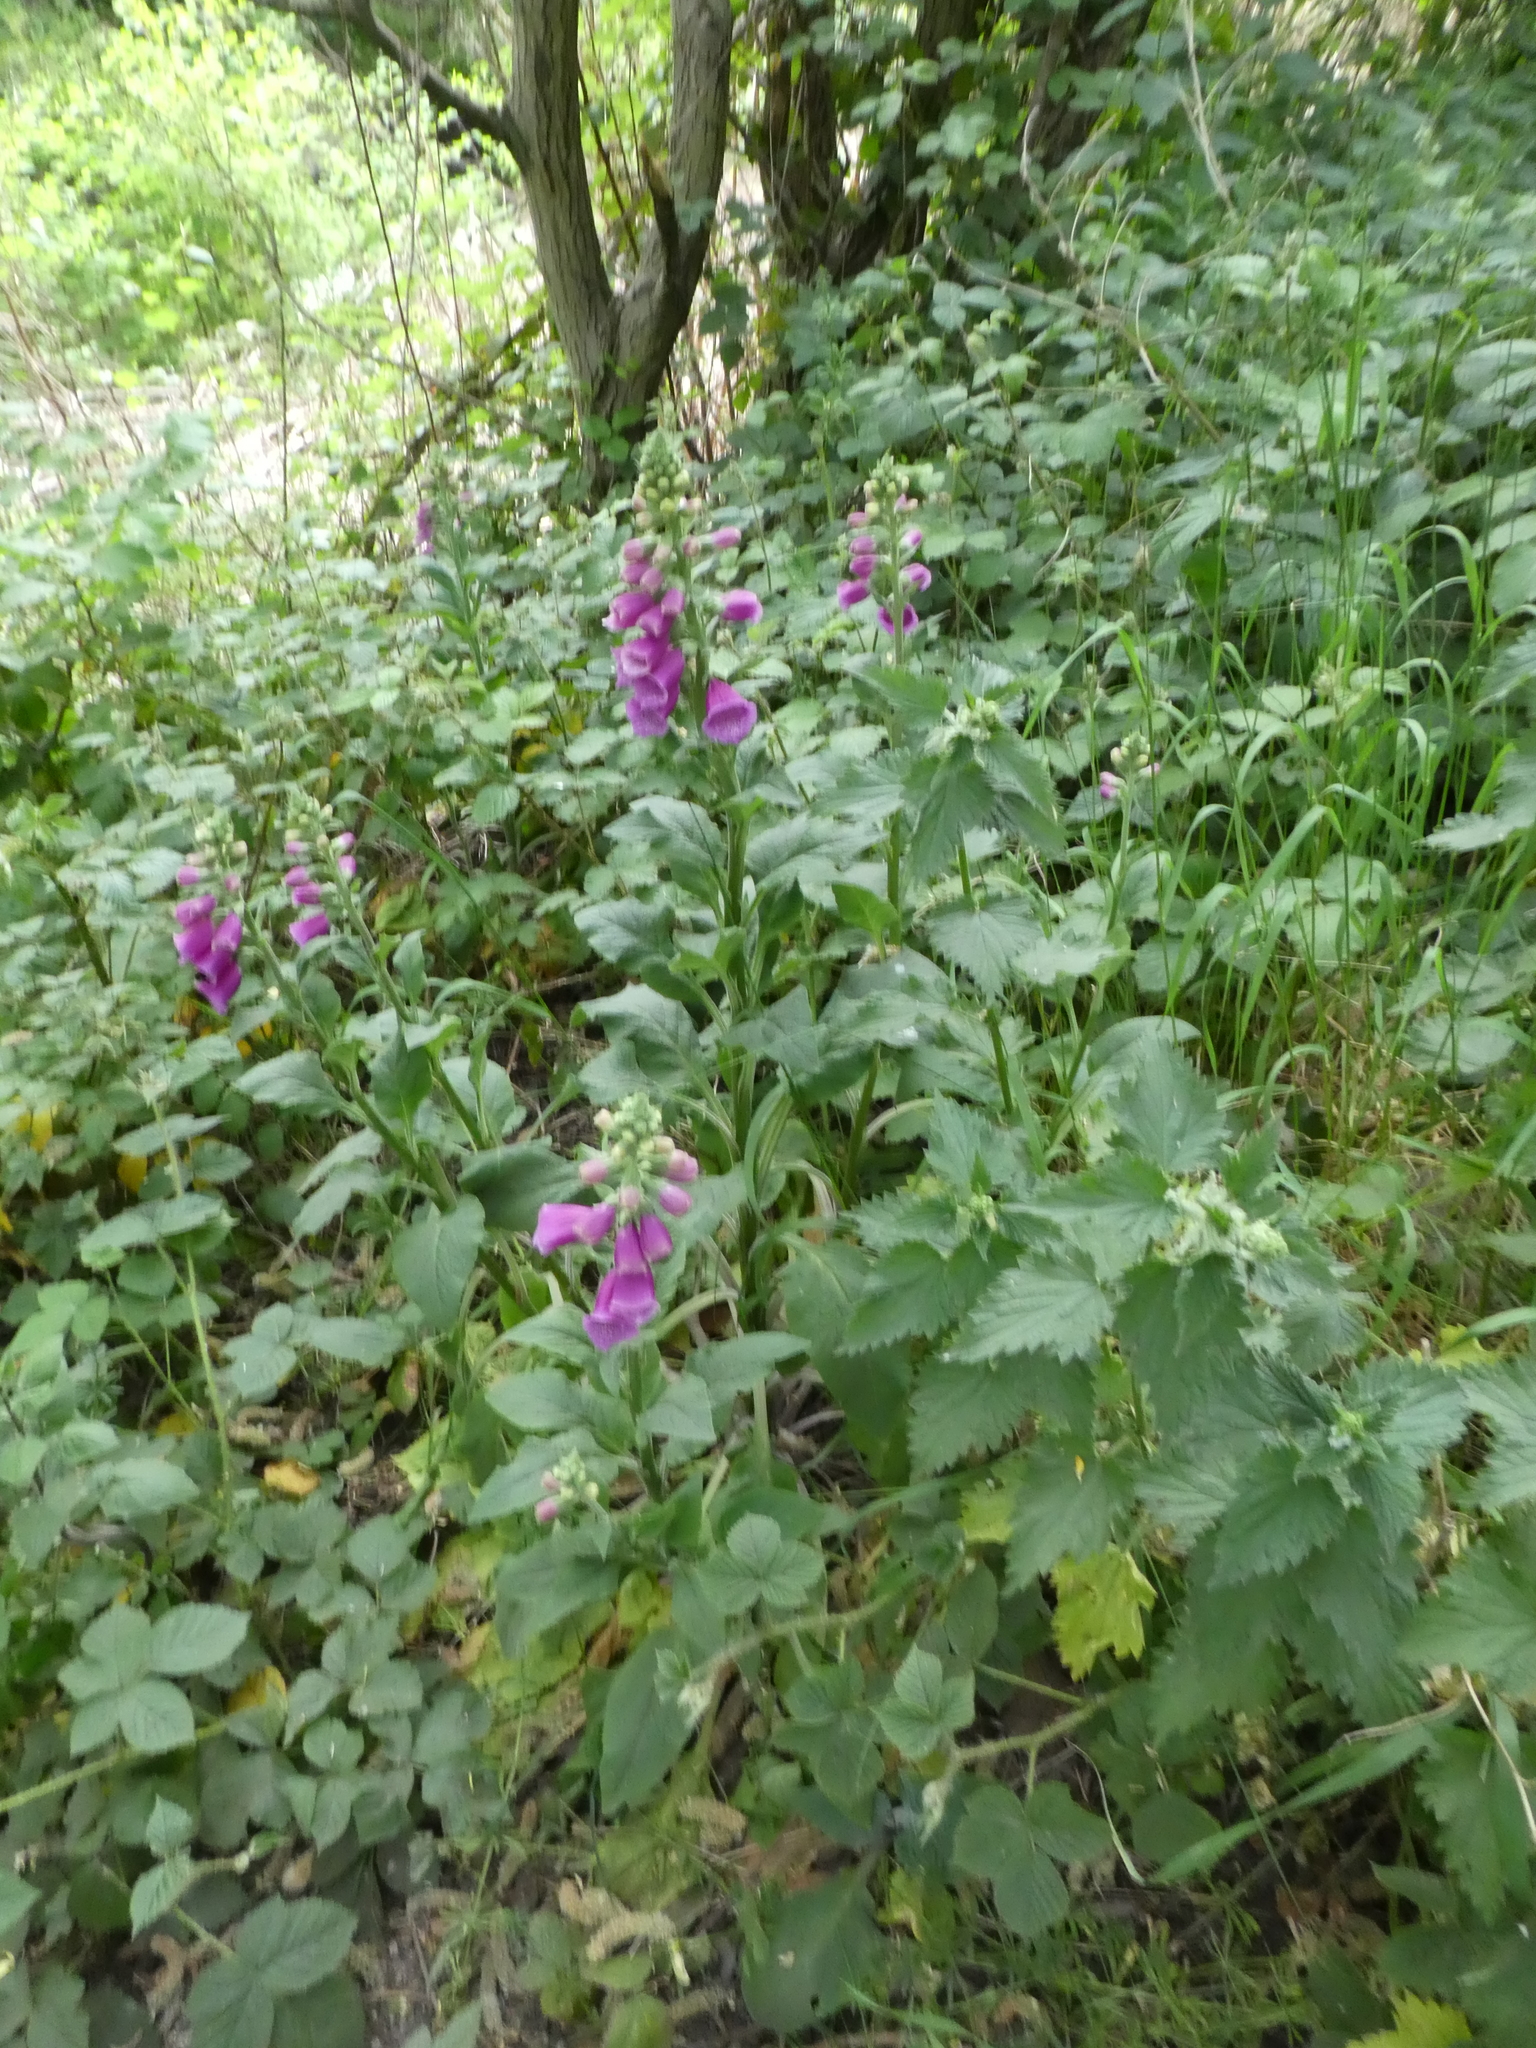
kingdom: Plantae
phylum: Tracheophyta
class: Magnoliopsida
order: Lamiales
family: Plantaginaceae
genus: Digitalis
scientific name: Digitalis purpurea
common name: Foxglove
